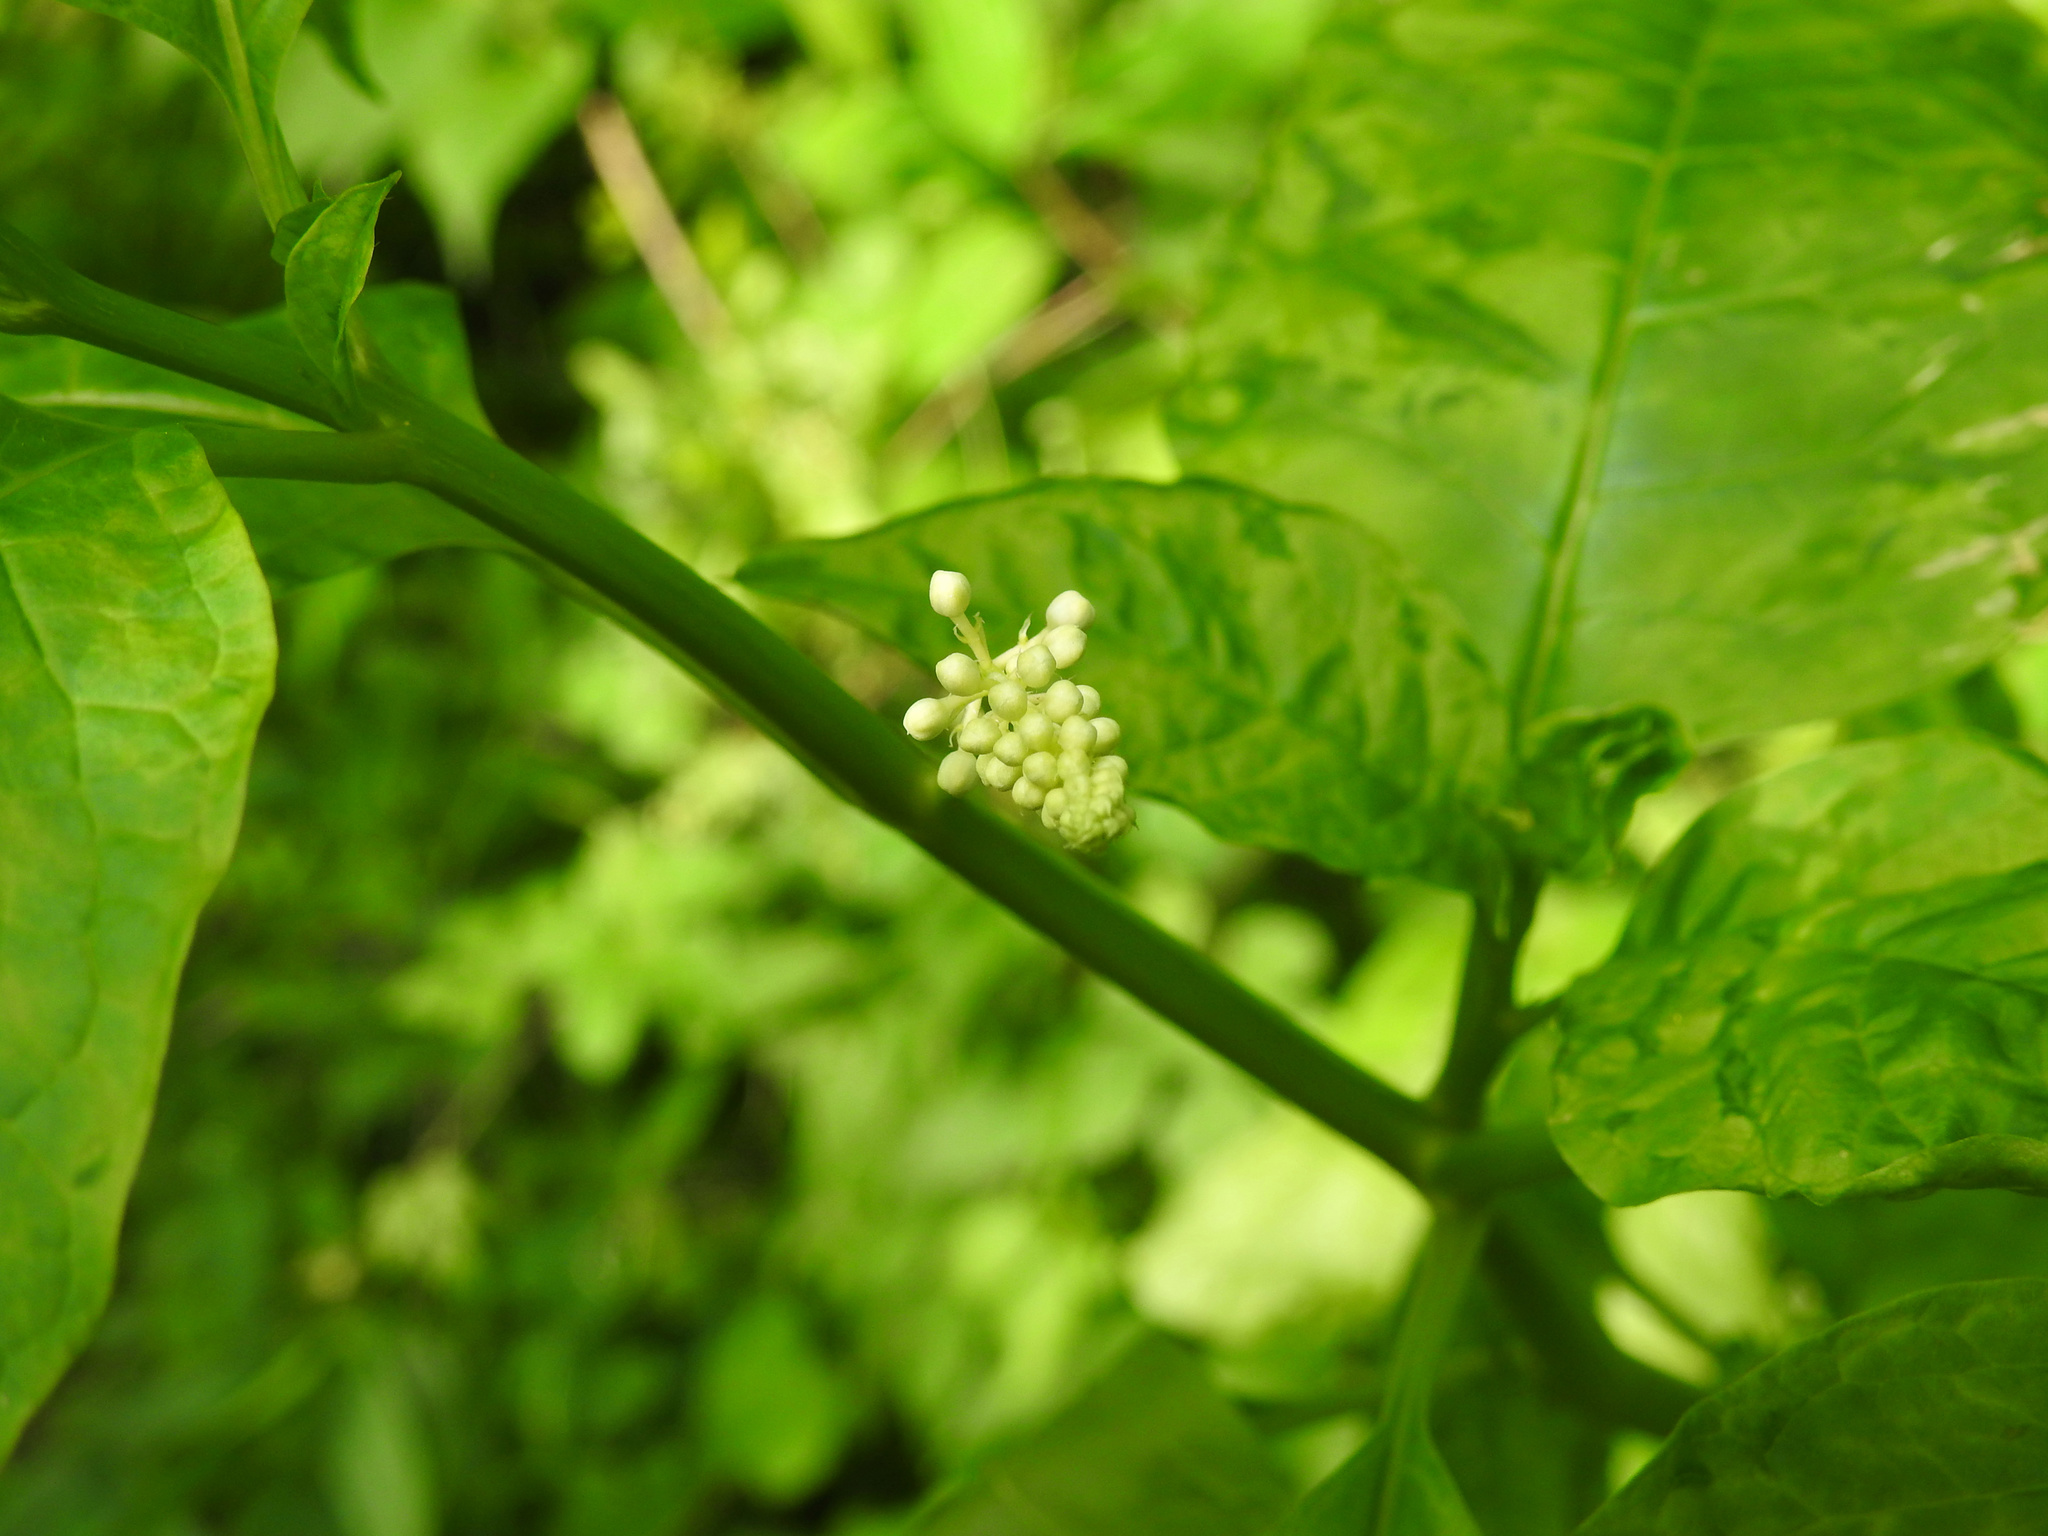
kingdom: Plantae
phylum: Tracheophyta
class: Magnoliopsida
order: Caryophyllales
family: Phytolaccaceae
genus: Phytolacca
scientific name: Phytolacca americana
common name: American pokeweed
